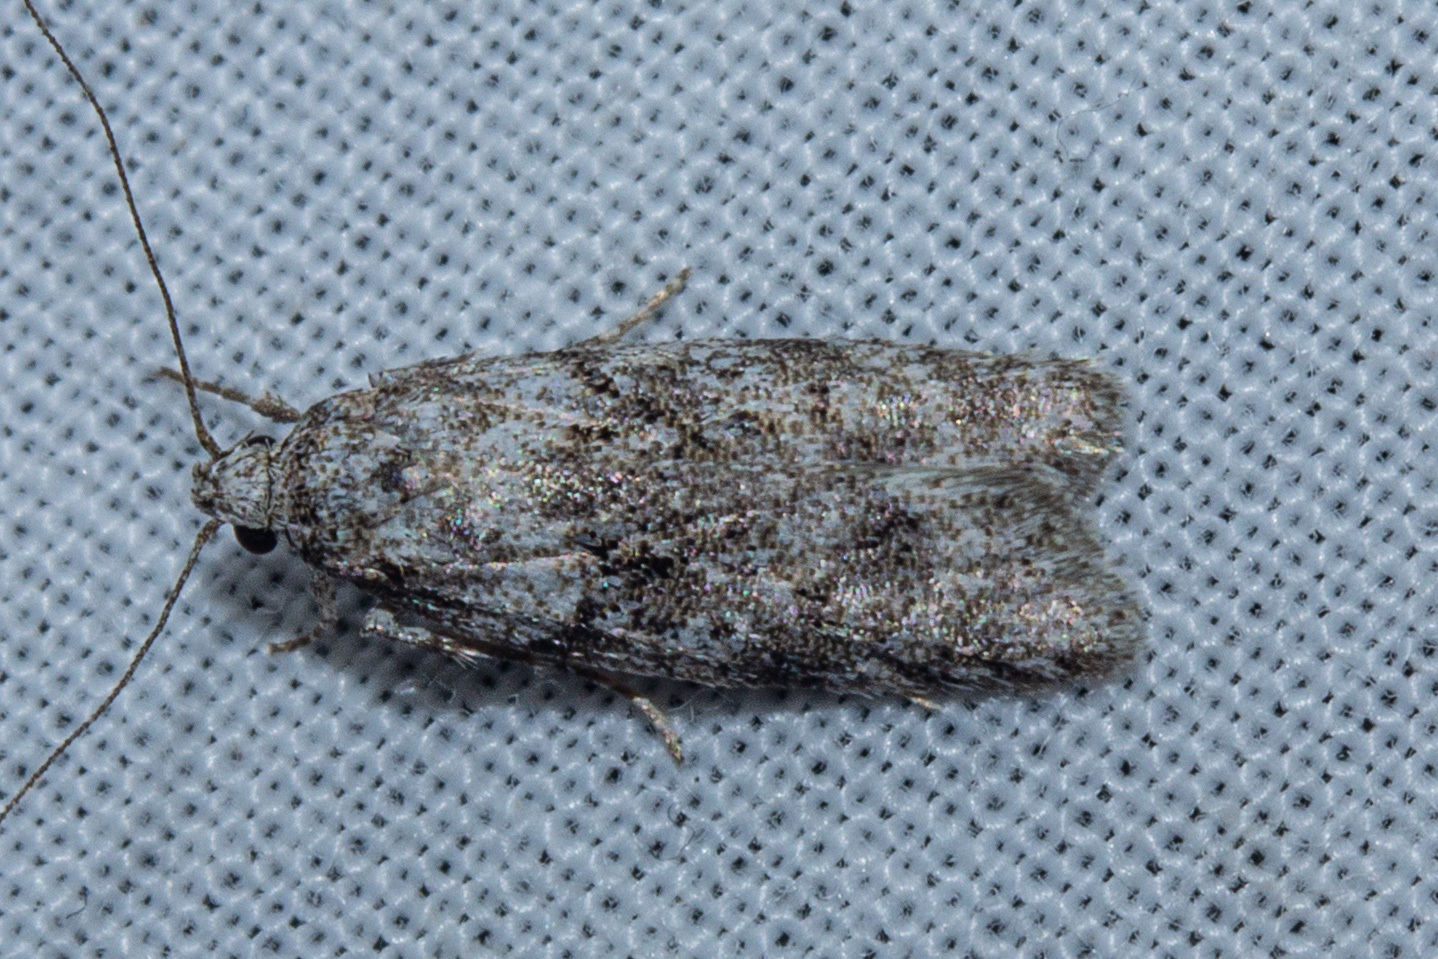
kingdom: Animalia
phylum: Arthropoda
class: Insecta
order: Lepidoptera
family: Oecophoridae
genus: Izatha
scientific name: Izatha convulsella
